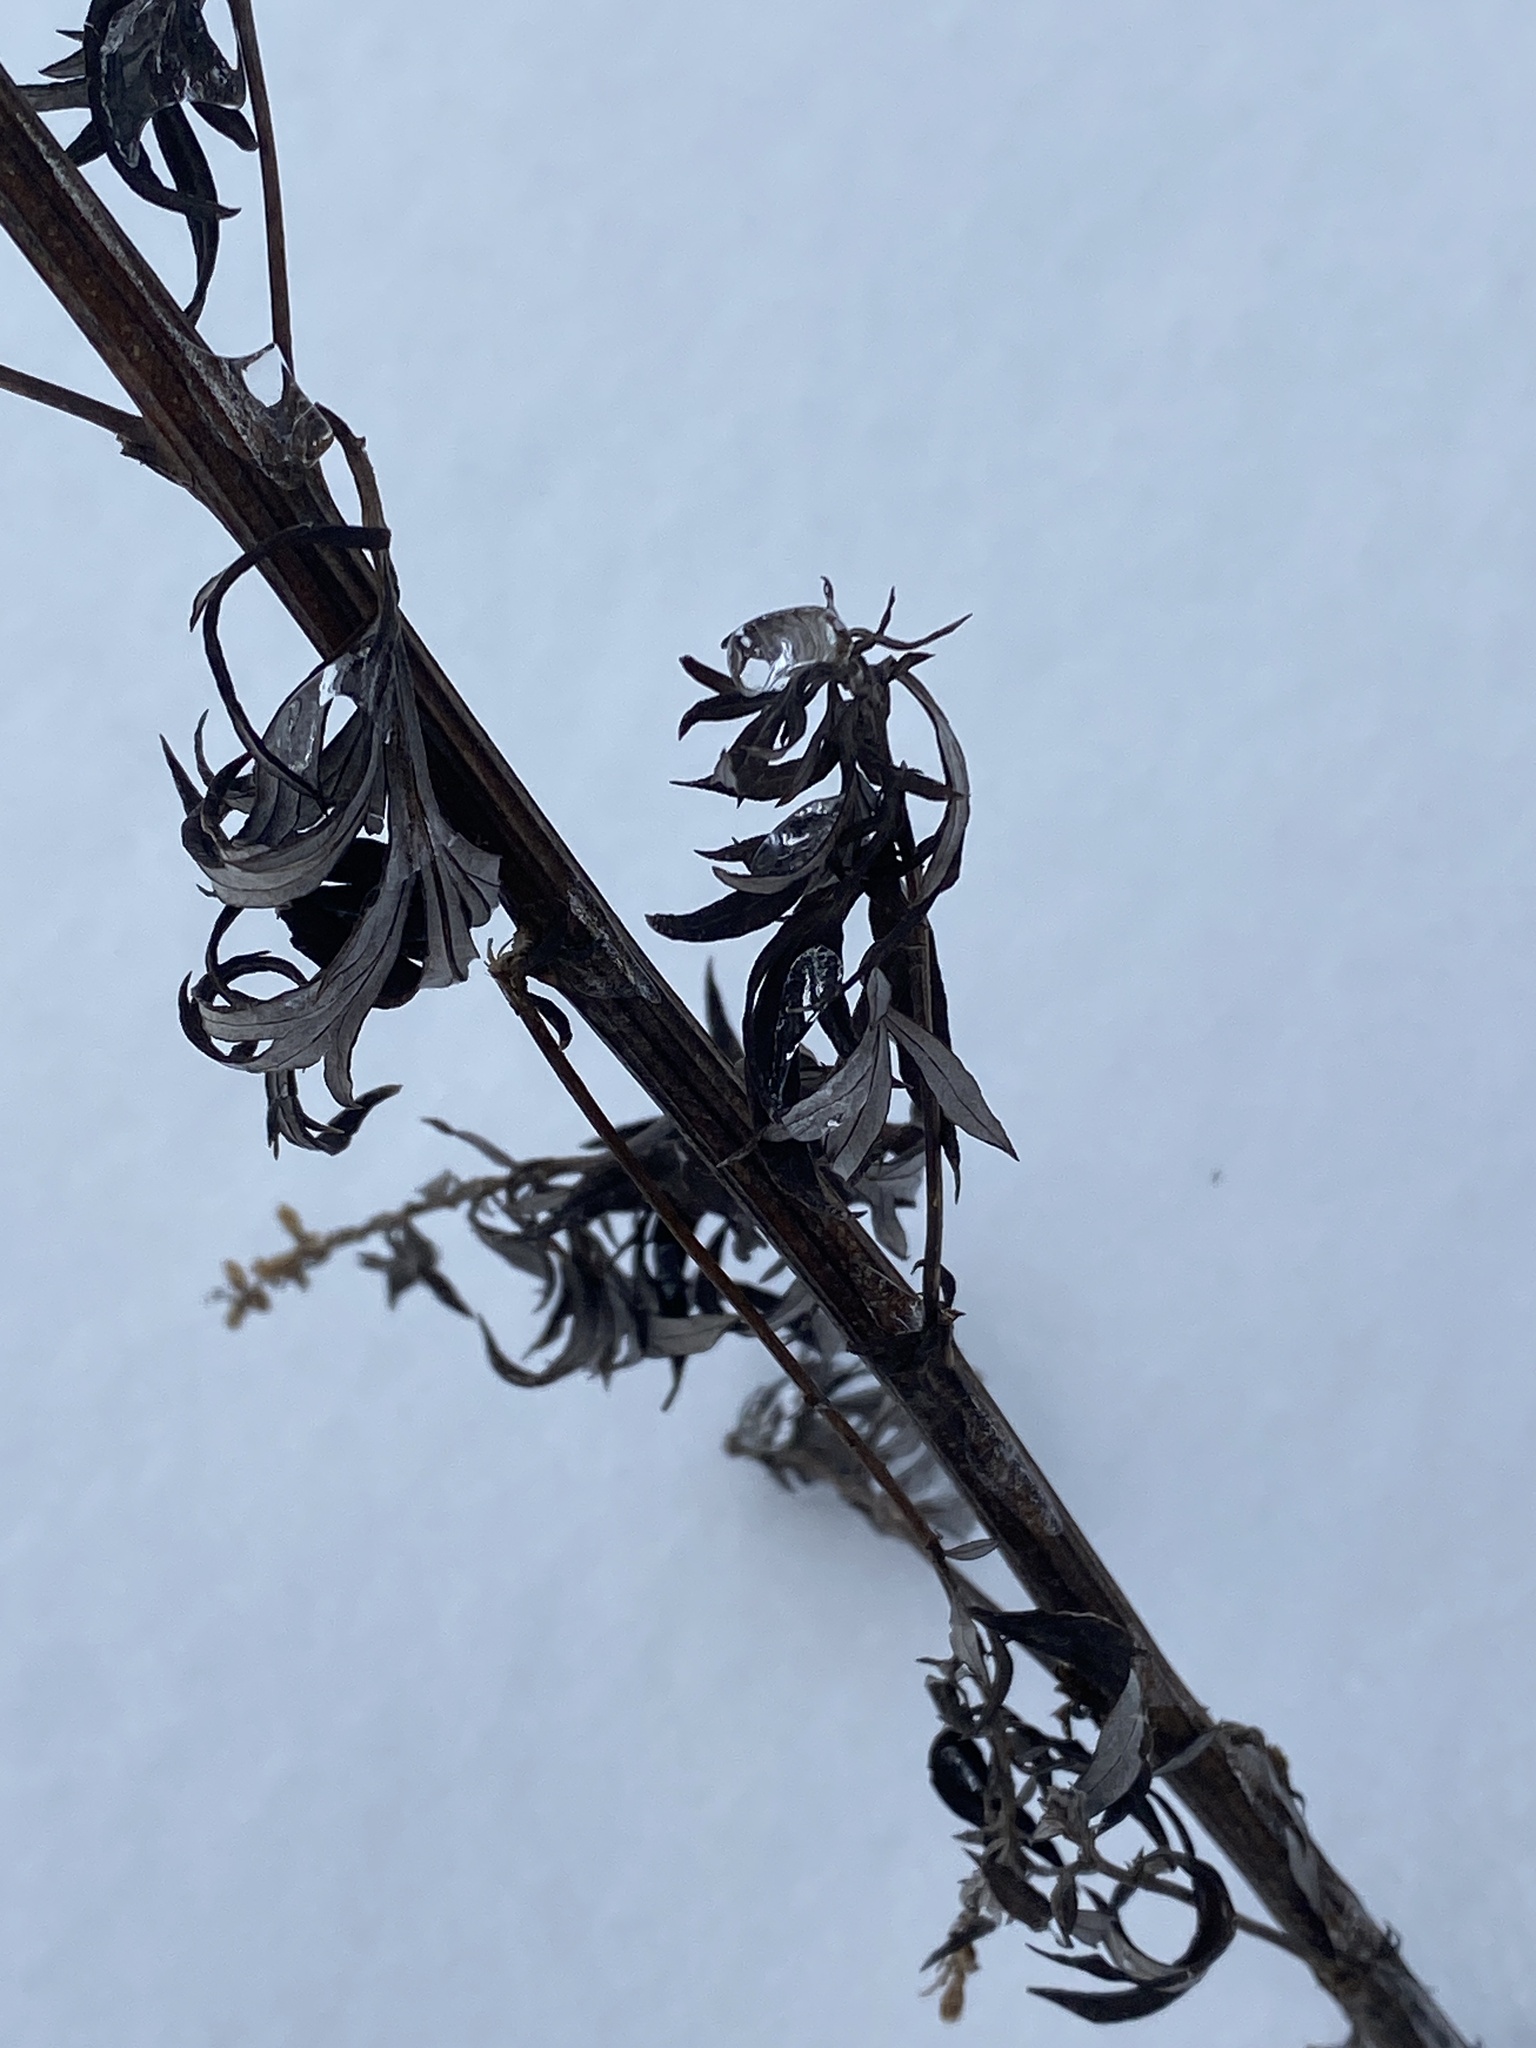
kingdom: Plantae
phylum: Tracheophyta
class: Magnoliopsida
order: Asterales
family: Asteraceae
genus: Artemisia
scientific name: Artemisia vulgaris
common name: Mugwort
